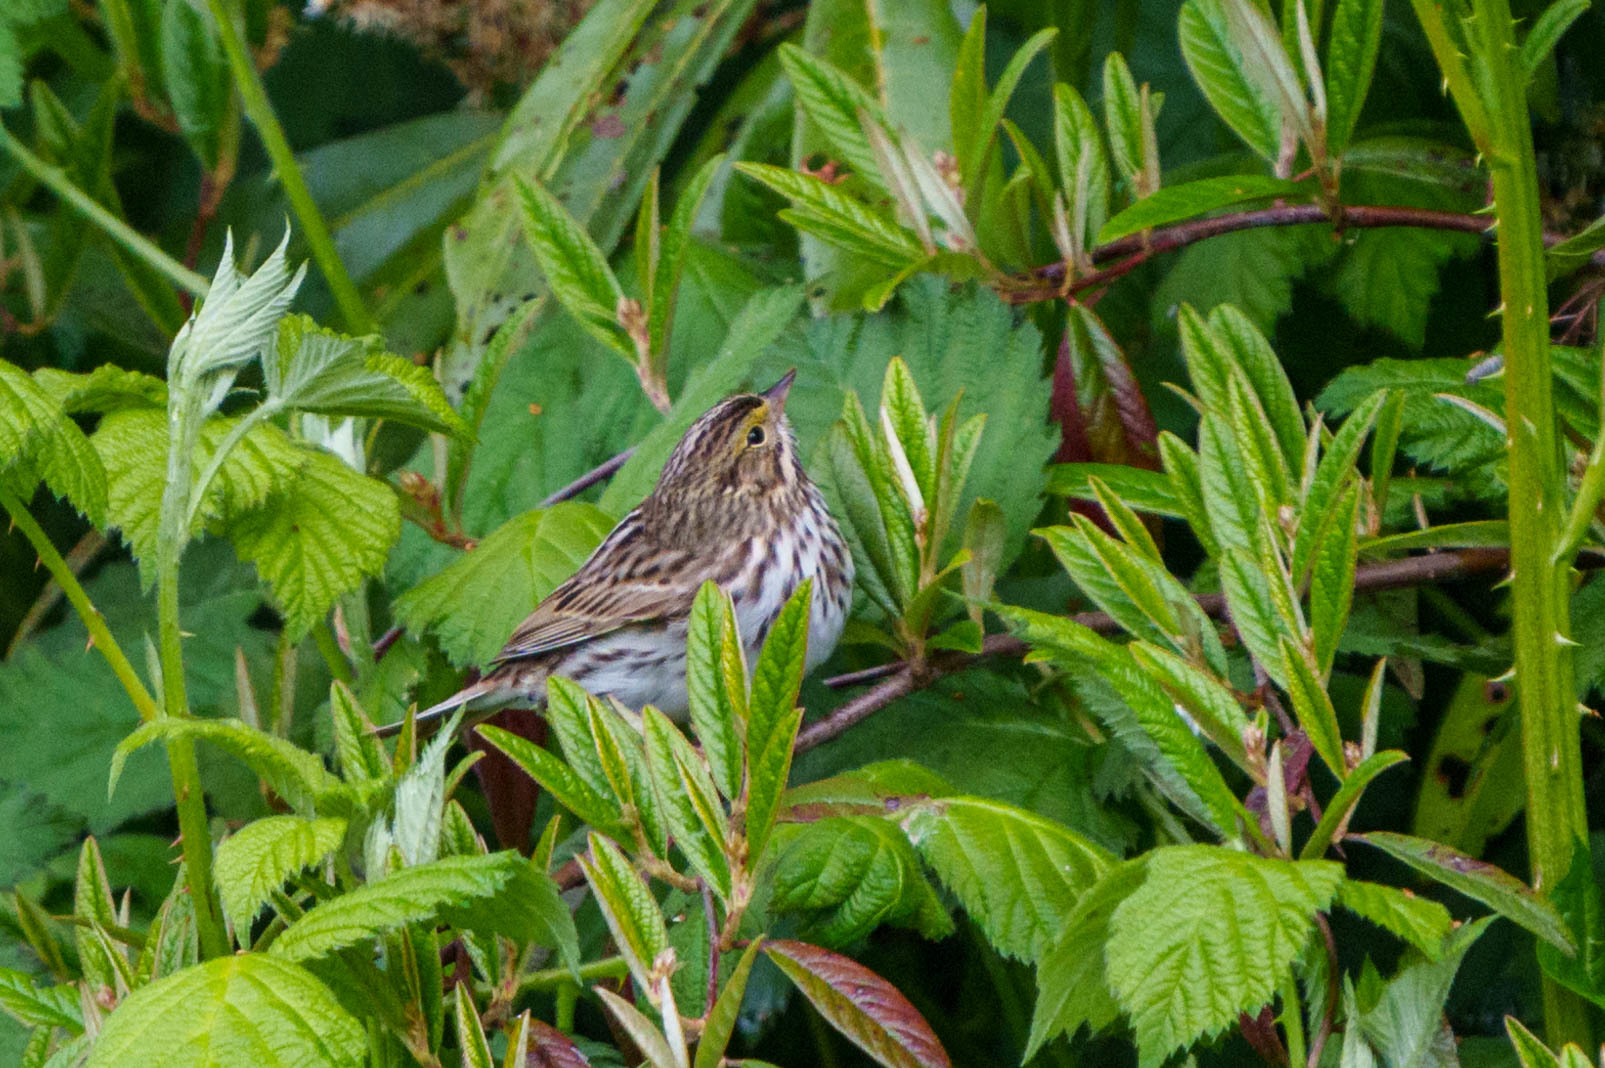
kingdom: Animalia
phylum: Chordata
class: Aves
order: Passeriformes
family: Passerellidae
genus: Passerculus
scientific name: Passerculus sandwichensis
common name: Savannah sparrow
